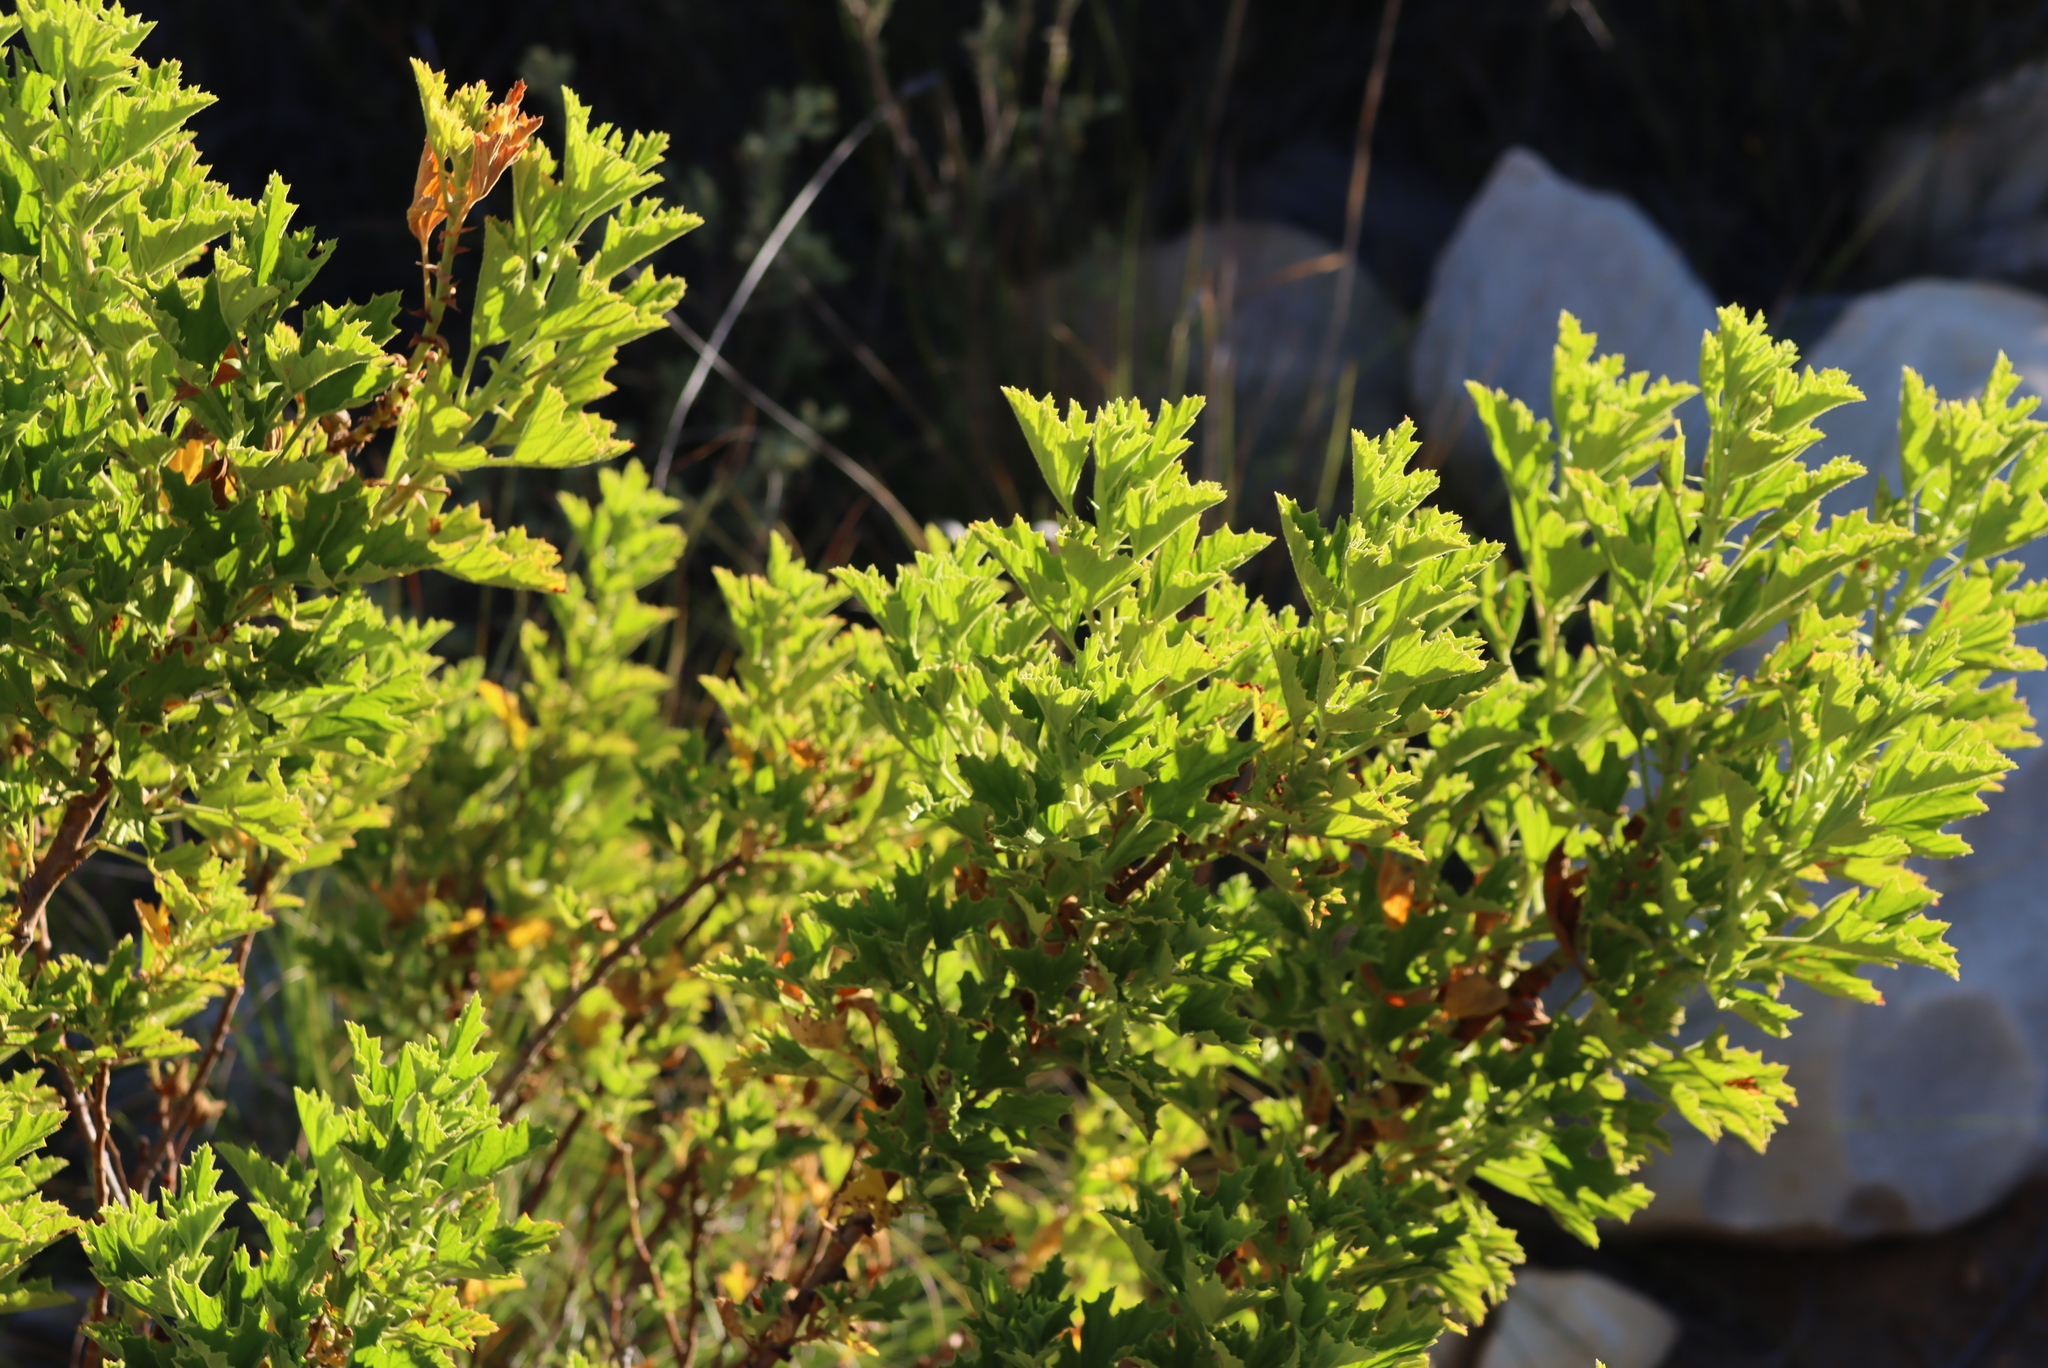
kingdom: Plantae
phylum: Tracheophyta
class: Magnoliopsida
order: Geraniales
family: Geraniaceae
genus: Pelargonium
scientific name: Pelargonium ribifolium
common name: Currant-leaf pelargonium
